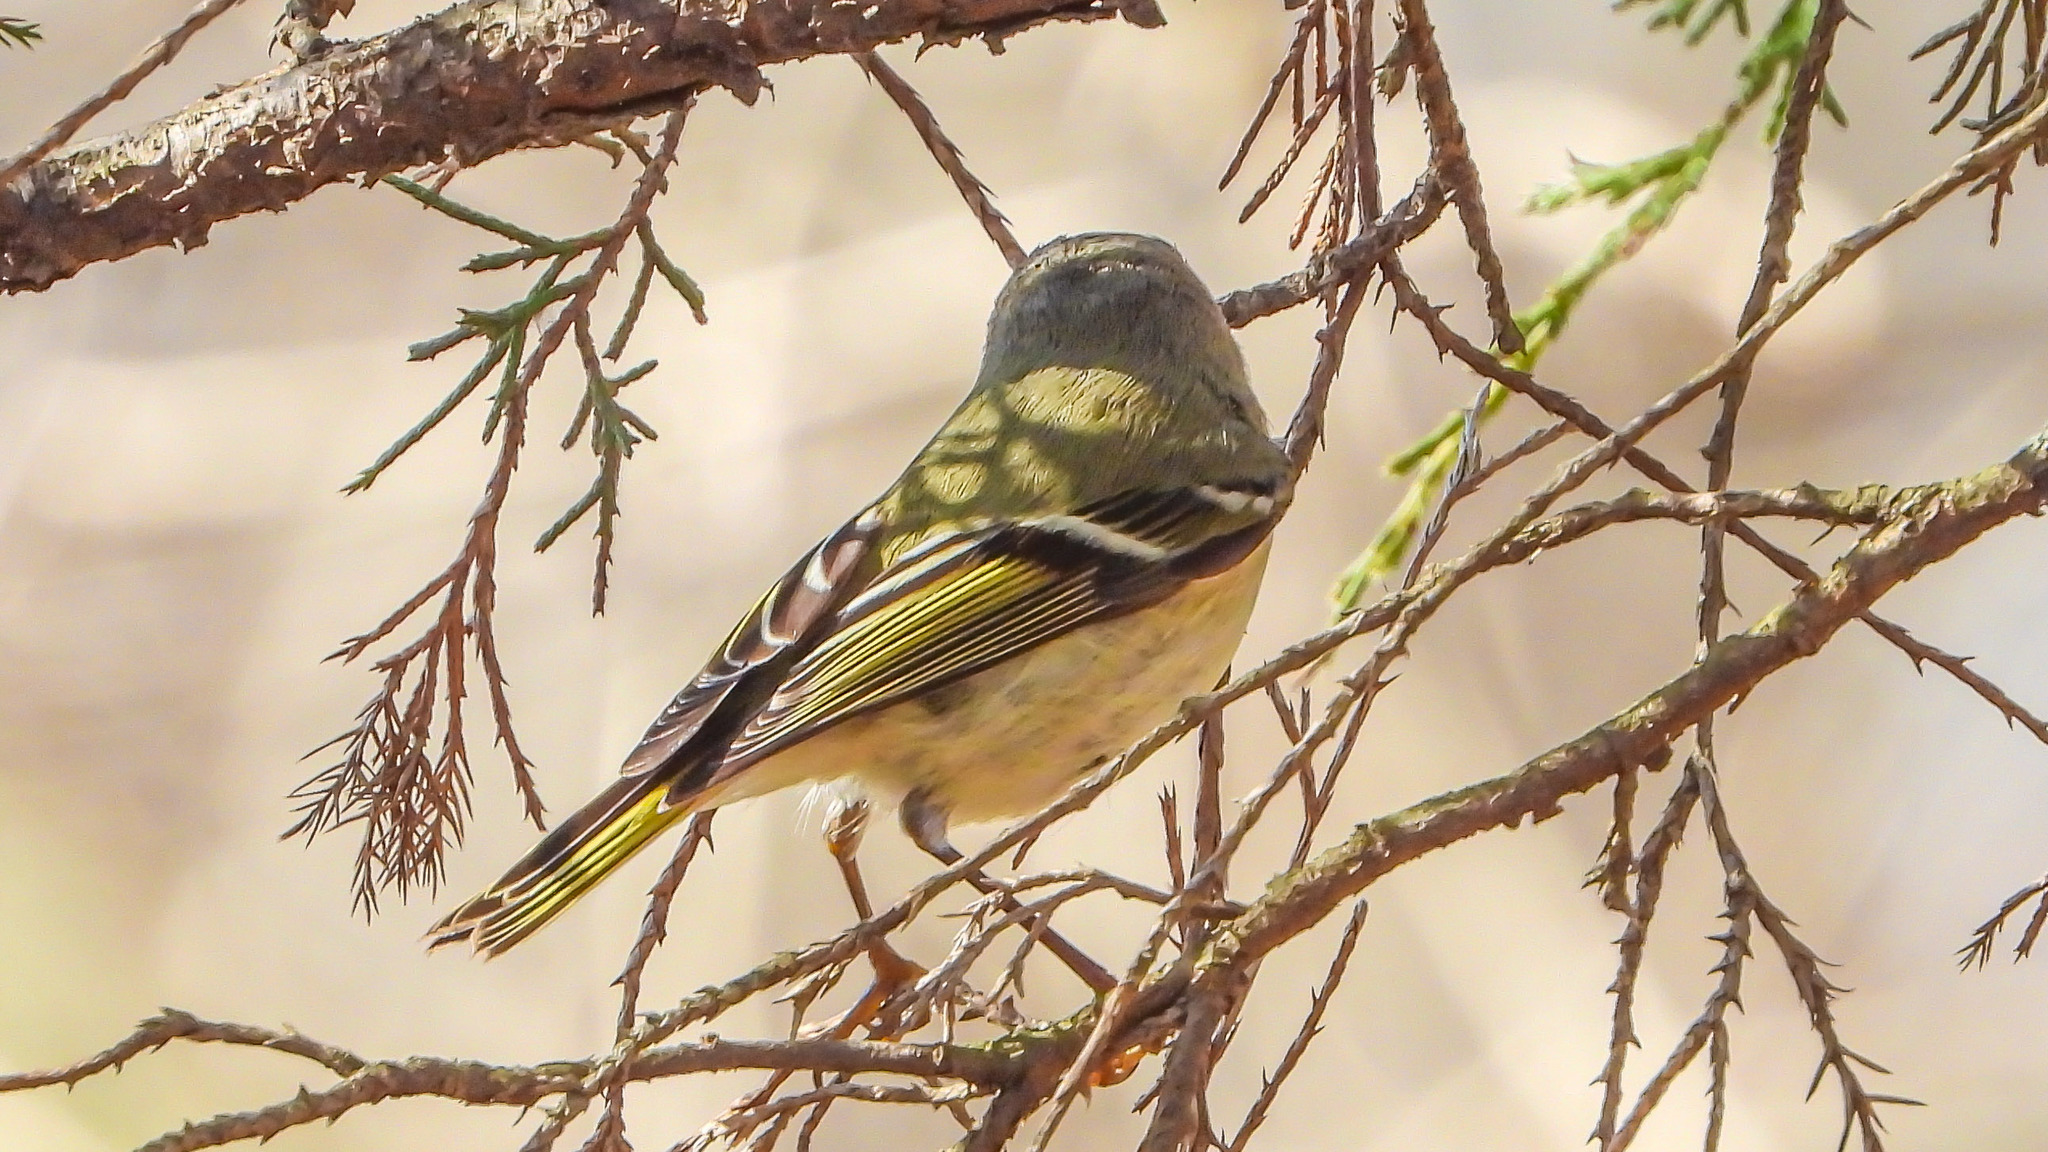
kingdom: Animalia
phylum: Chordata
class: Aves
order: Passeriformes
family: Regulidae
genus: Regulus
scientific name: Regulus calendula
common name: Ruby-crowned kinglet
